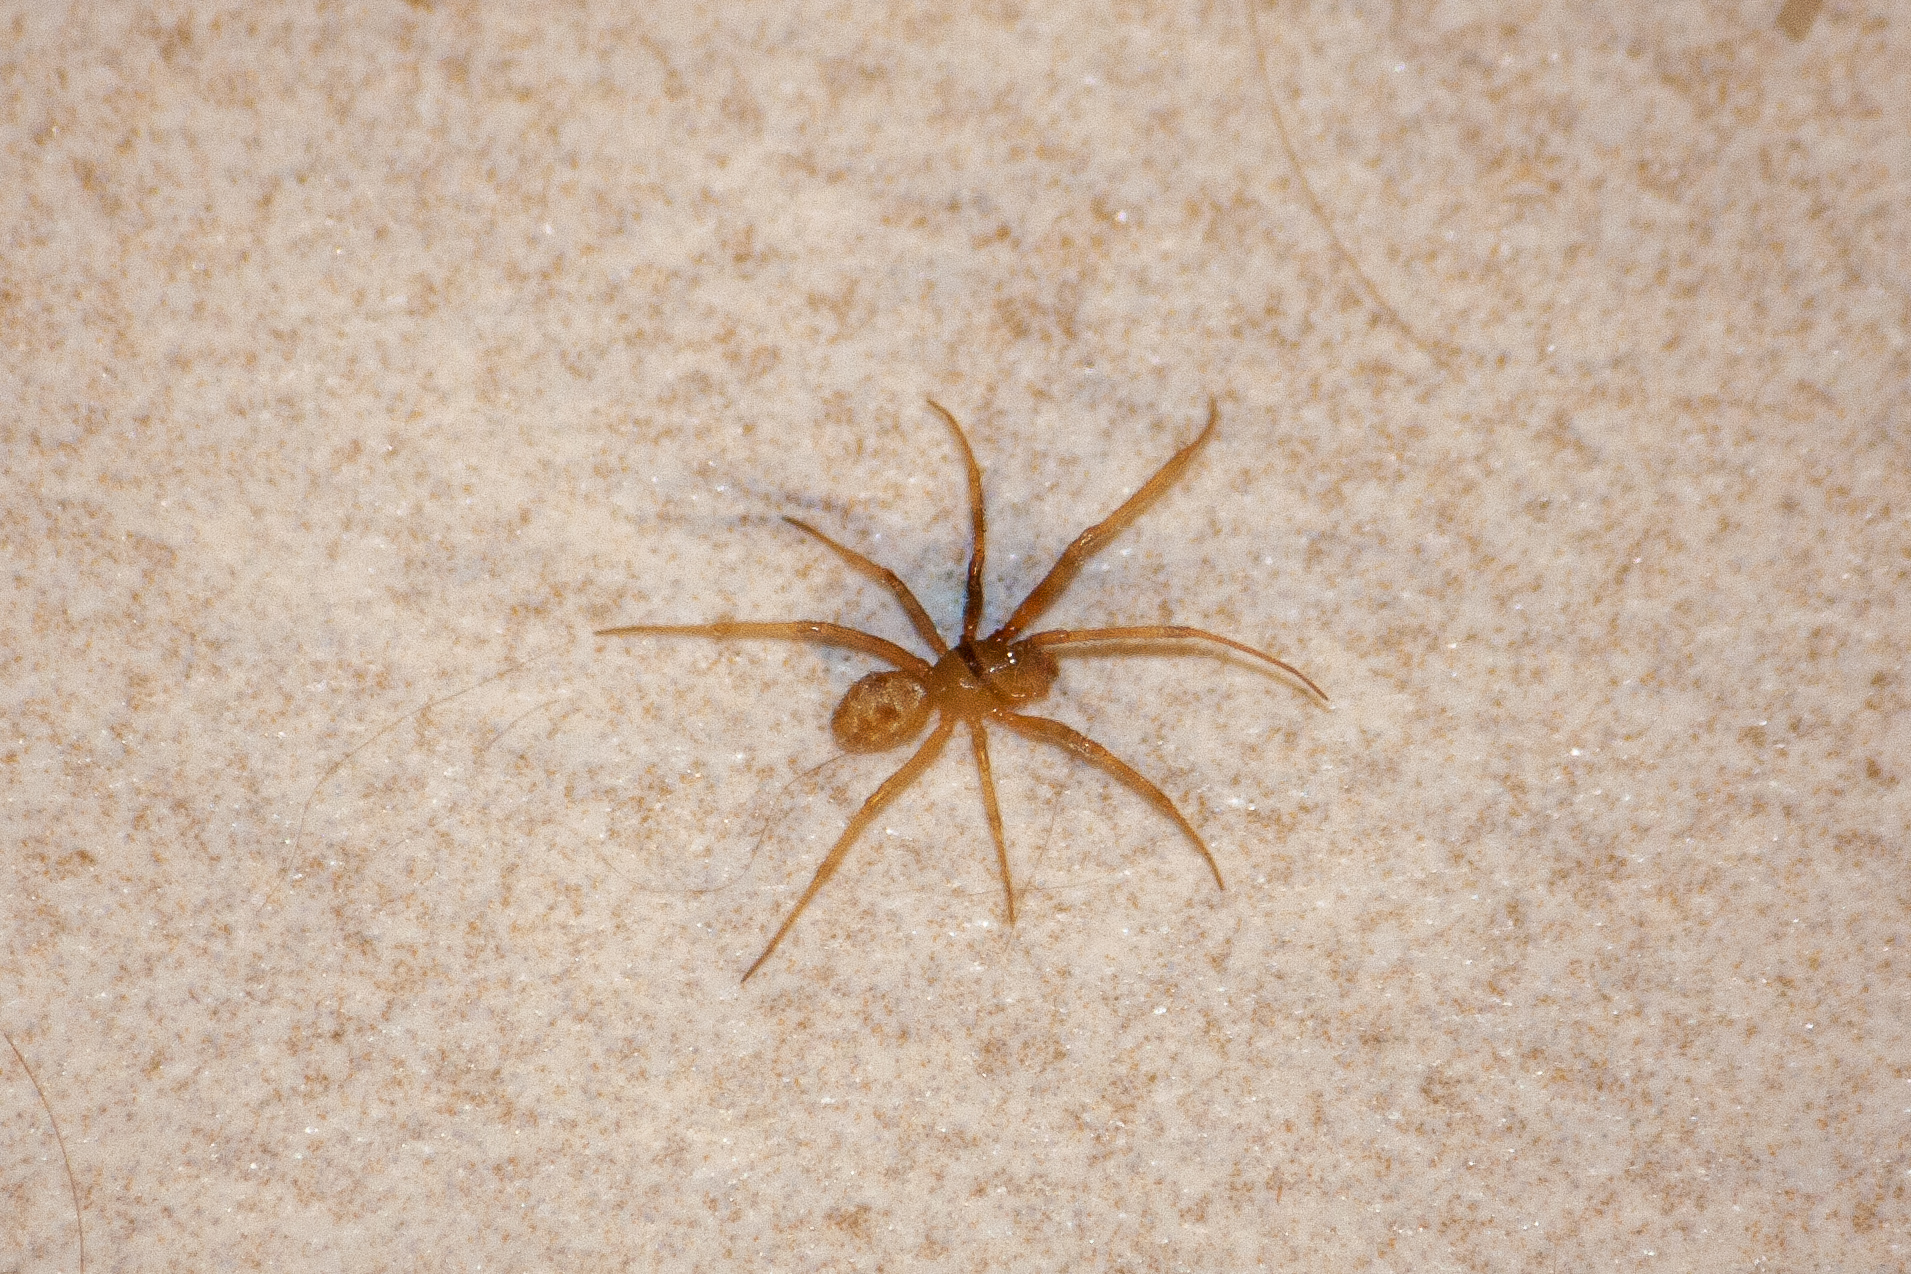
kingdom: Animalia
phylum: Arthropoda
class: Arachnida
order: Araneae
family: Theridiidae
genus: Steatoda
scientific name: Steatoda triangulosa
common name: Triangulate bud spider
